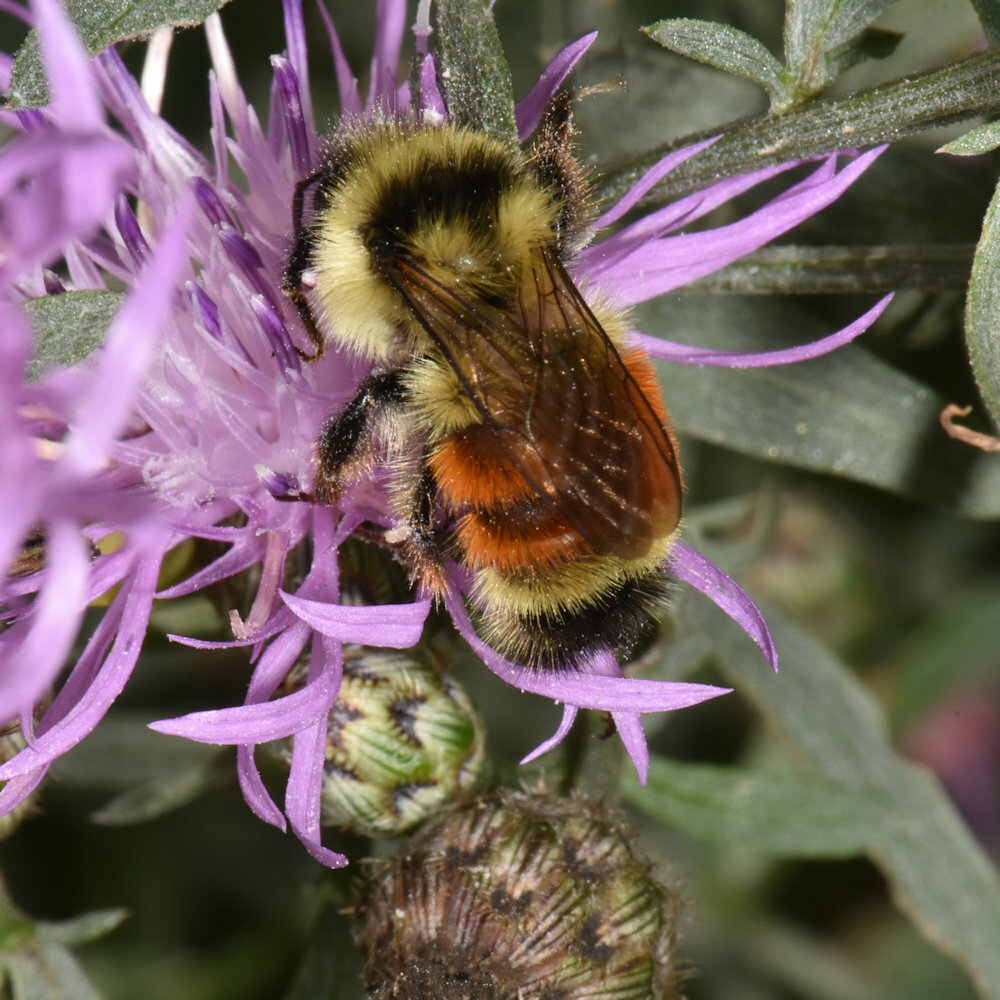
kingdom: Animalia
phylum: Arthropoda
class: Insecta
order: Hymenoptera
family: Apidae
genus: Bombus
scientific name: Bombus ternarius
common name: Tri-colored bumble bee
